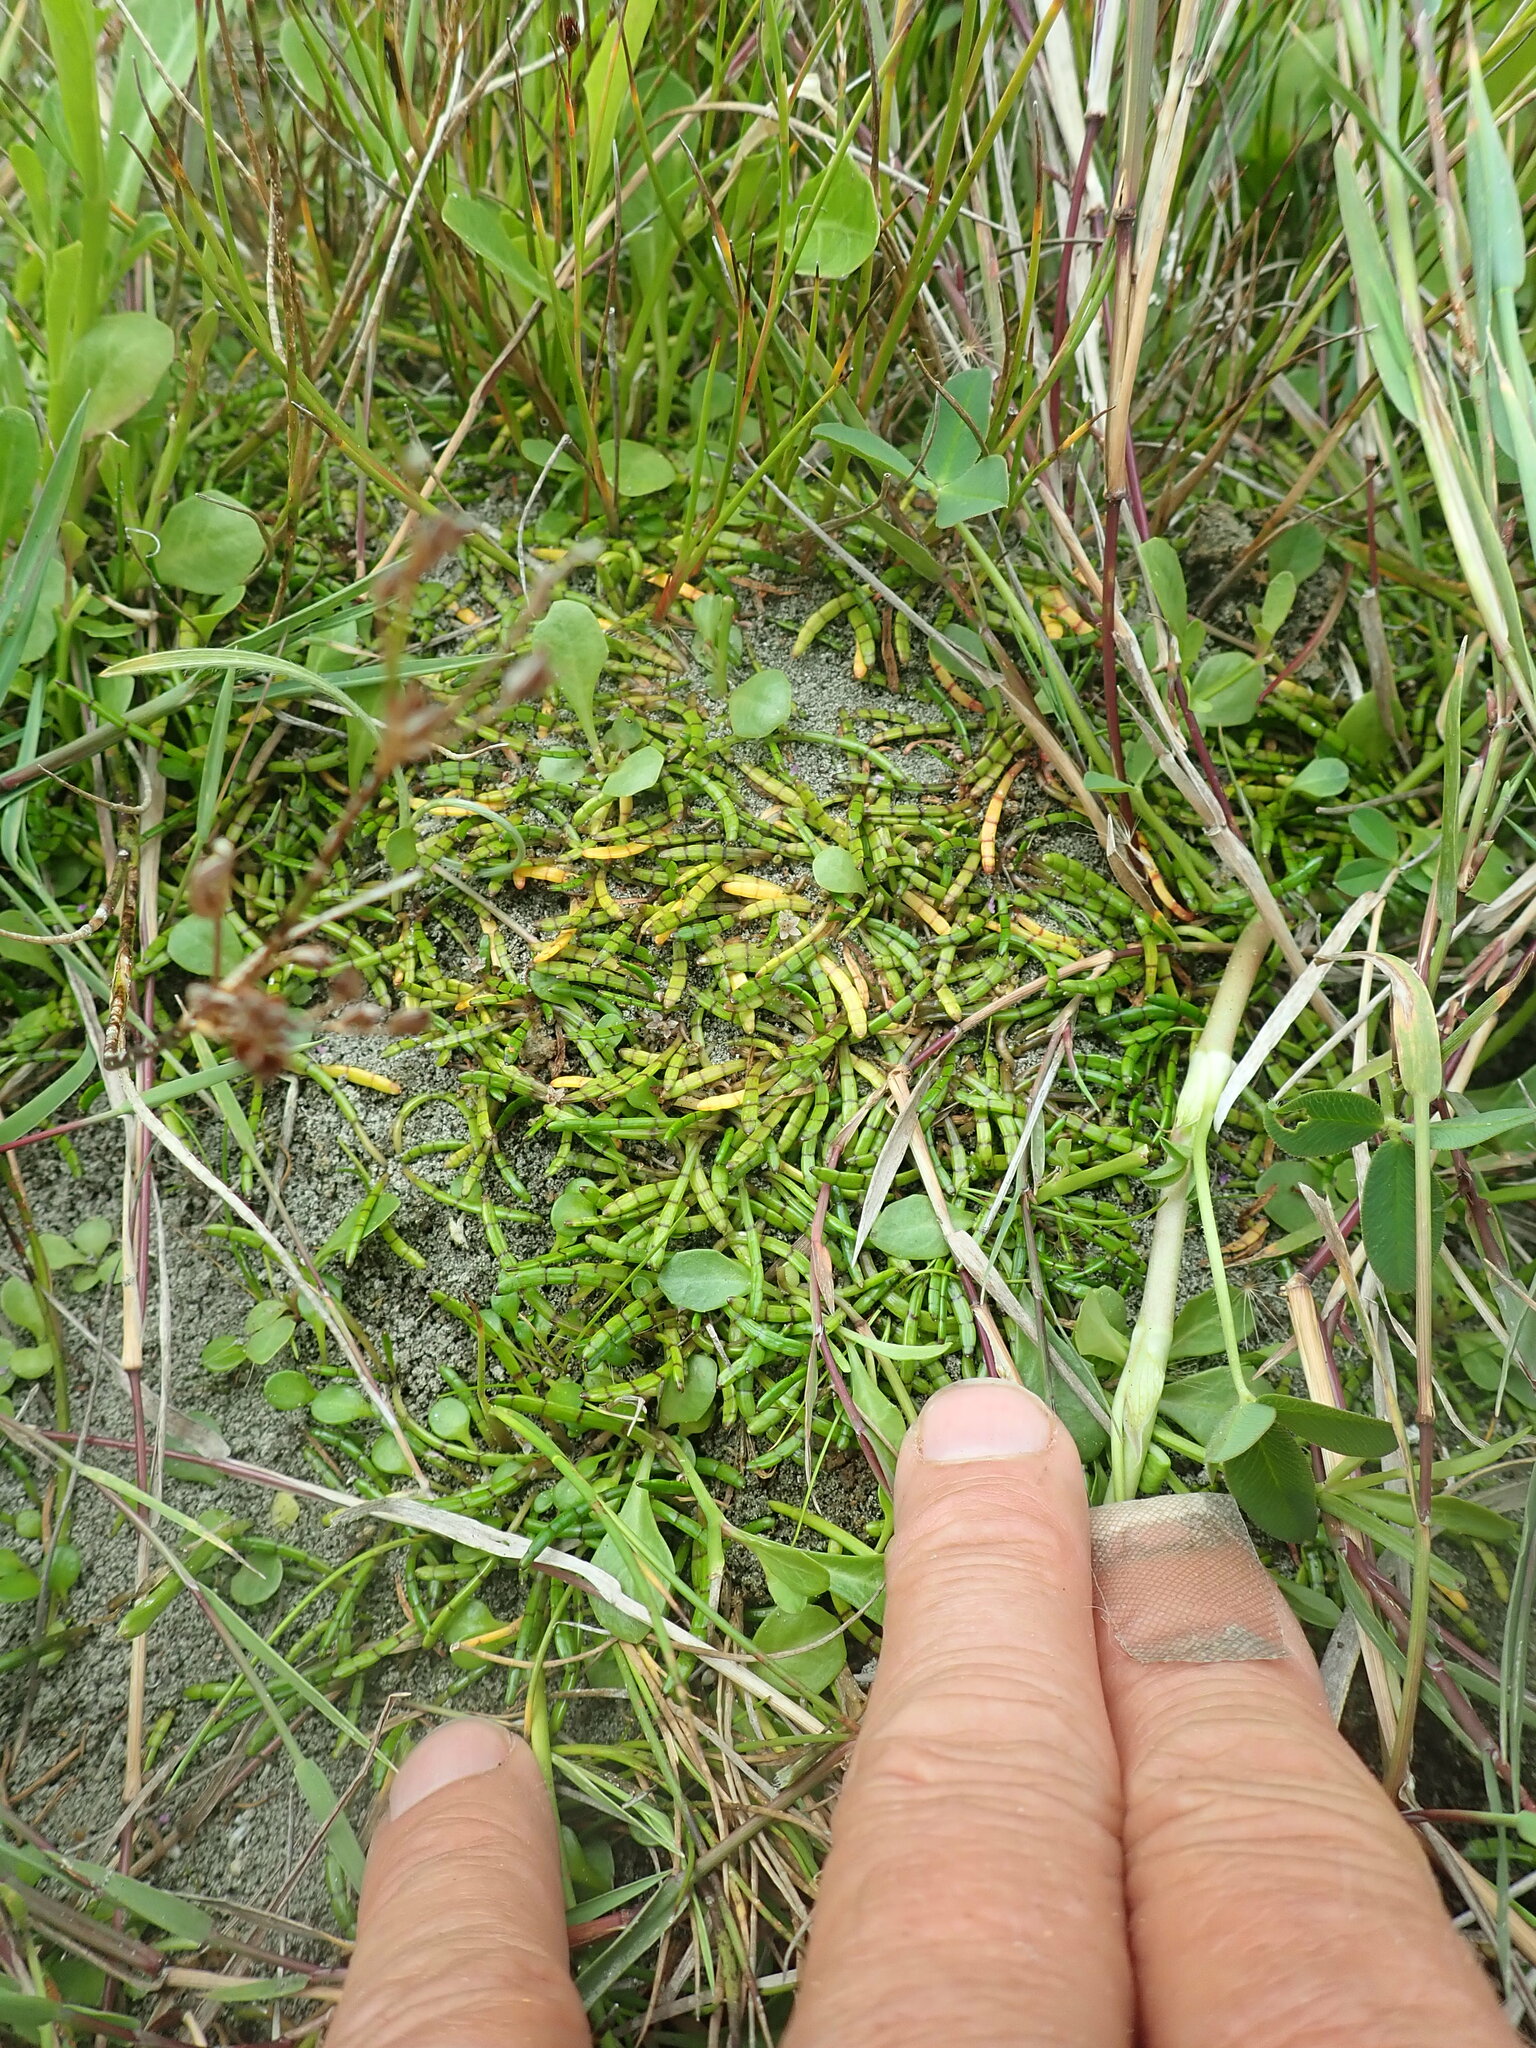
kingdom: Plantae
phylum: Tracheophyta
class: Magnoliopsida
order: Apiales
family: Apiaceae
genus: Lilaeopsis
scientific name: Lilaeopsis novae-zelandiae
